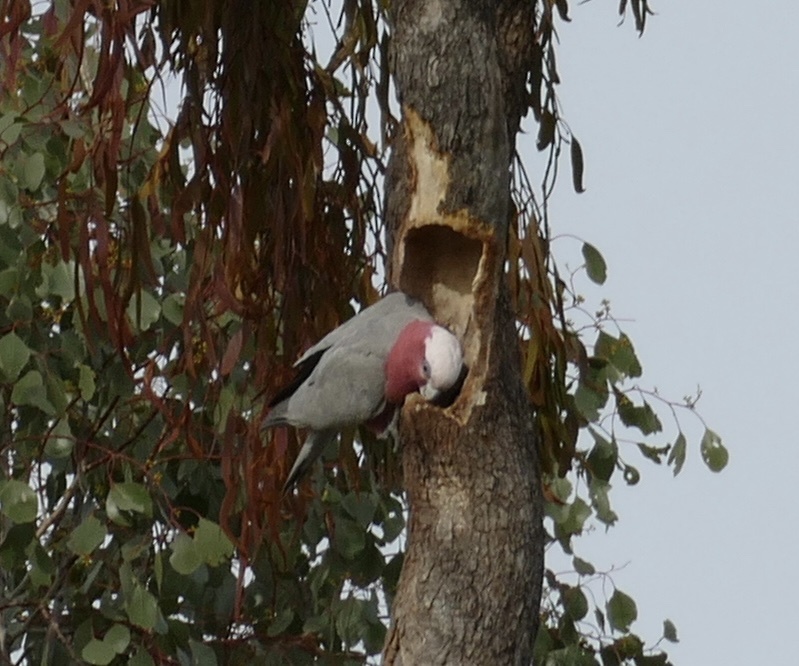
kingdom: Animalia
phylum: Chordata
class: Aves
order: Psittaciformes
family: Psittacidae
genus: Eolophus
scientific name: Eolophus roseicapilla
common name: Galah
